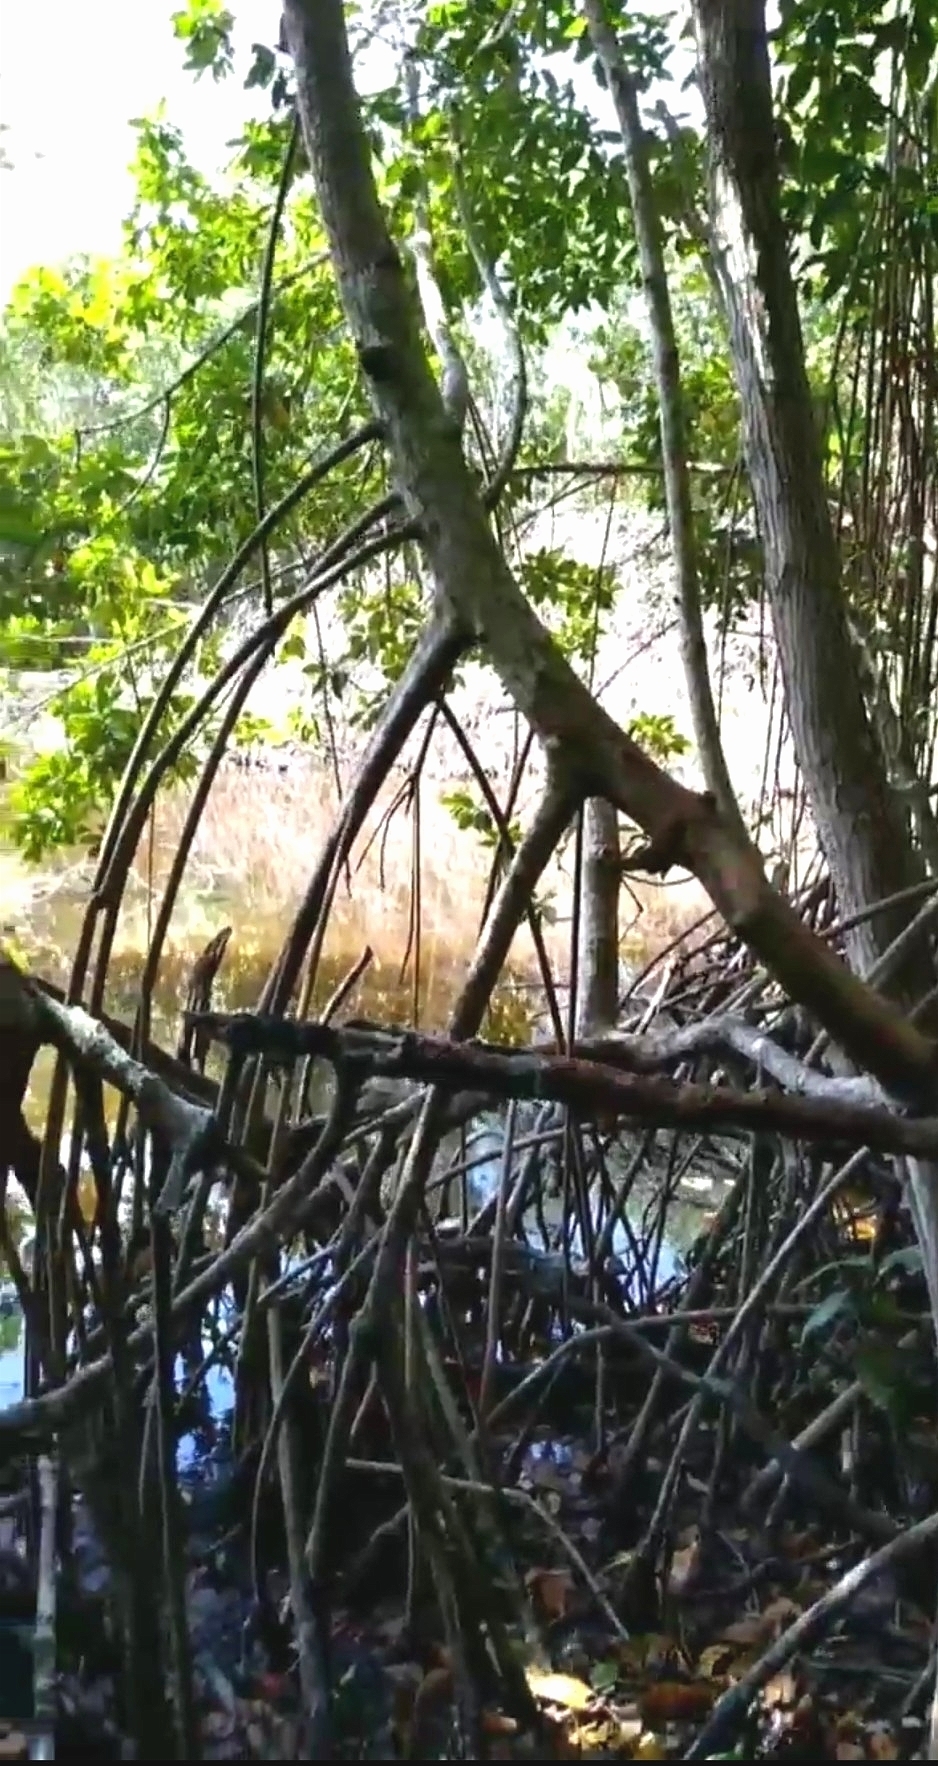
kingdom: Plantae
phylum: Tracheophyta
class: Magnoliopsida
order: Malpighiales
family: Rhizophoraceae
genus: Rhizophora
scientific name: Rhizophora mangle
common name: Red mangrove
